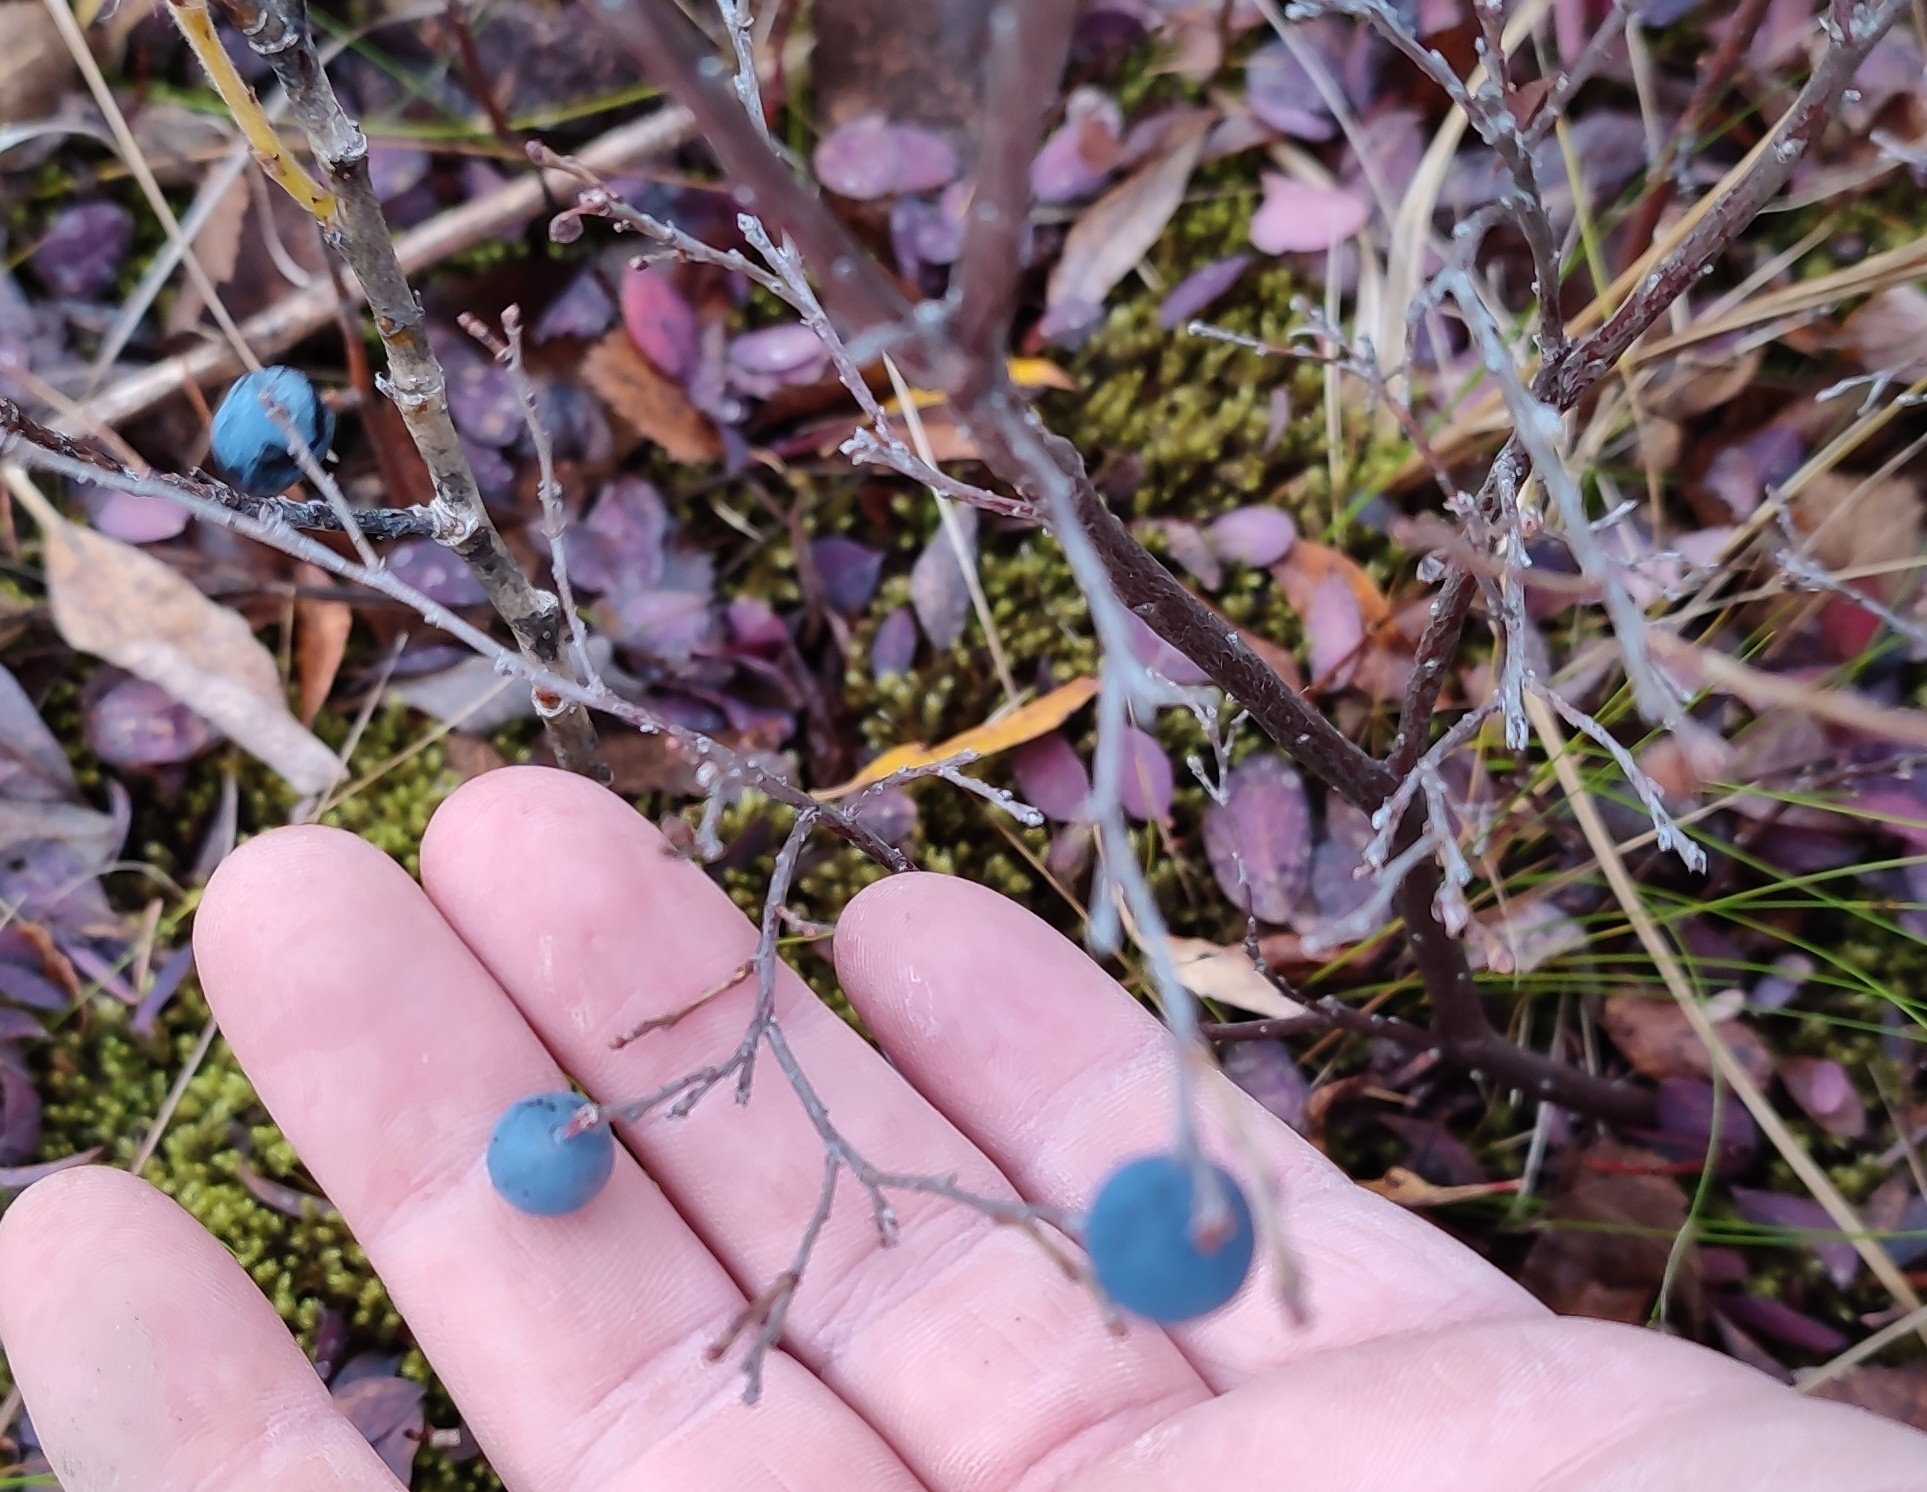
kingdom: Plantae
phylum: Tracheophyta
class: Magnoliopsida
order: Ericales
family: Ericaceae
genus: Vaccinium
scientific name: Vaccinium uliginosum
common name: Bog bilberry
